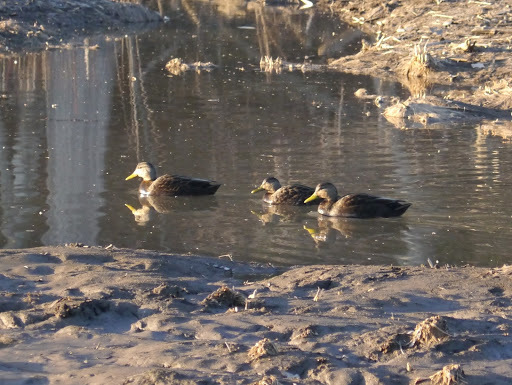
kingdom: Animalia
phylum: Chordata
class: Aves
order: Anseriformes
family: Anatidae
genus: Anas
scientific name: Anas rubripes
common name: American black duck
